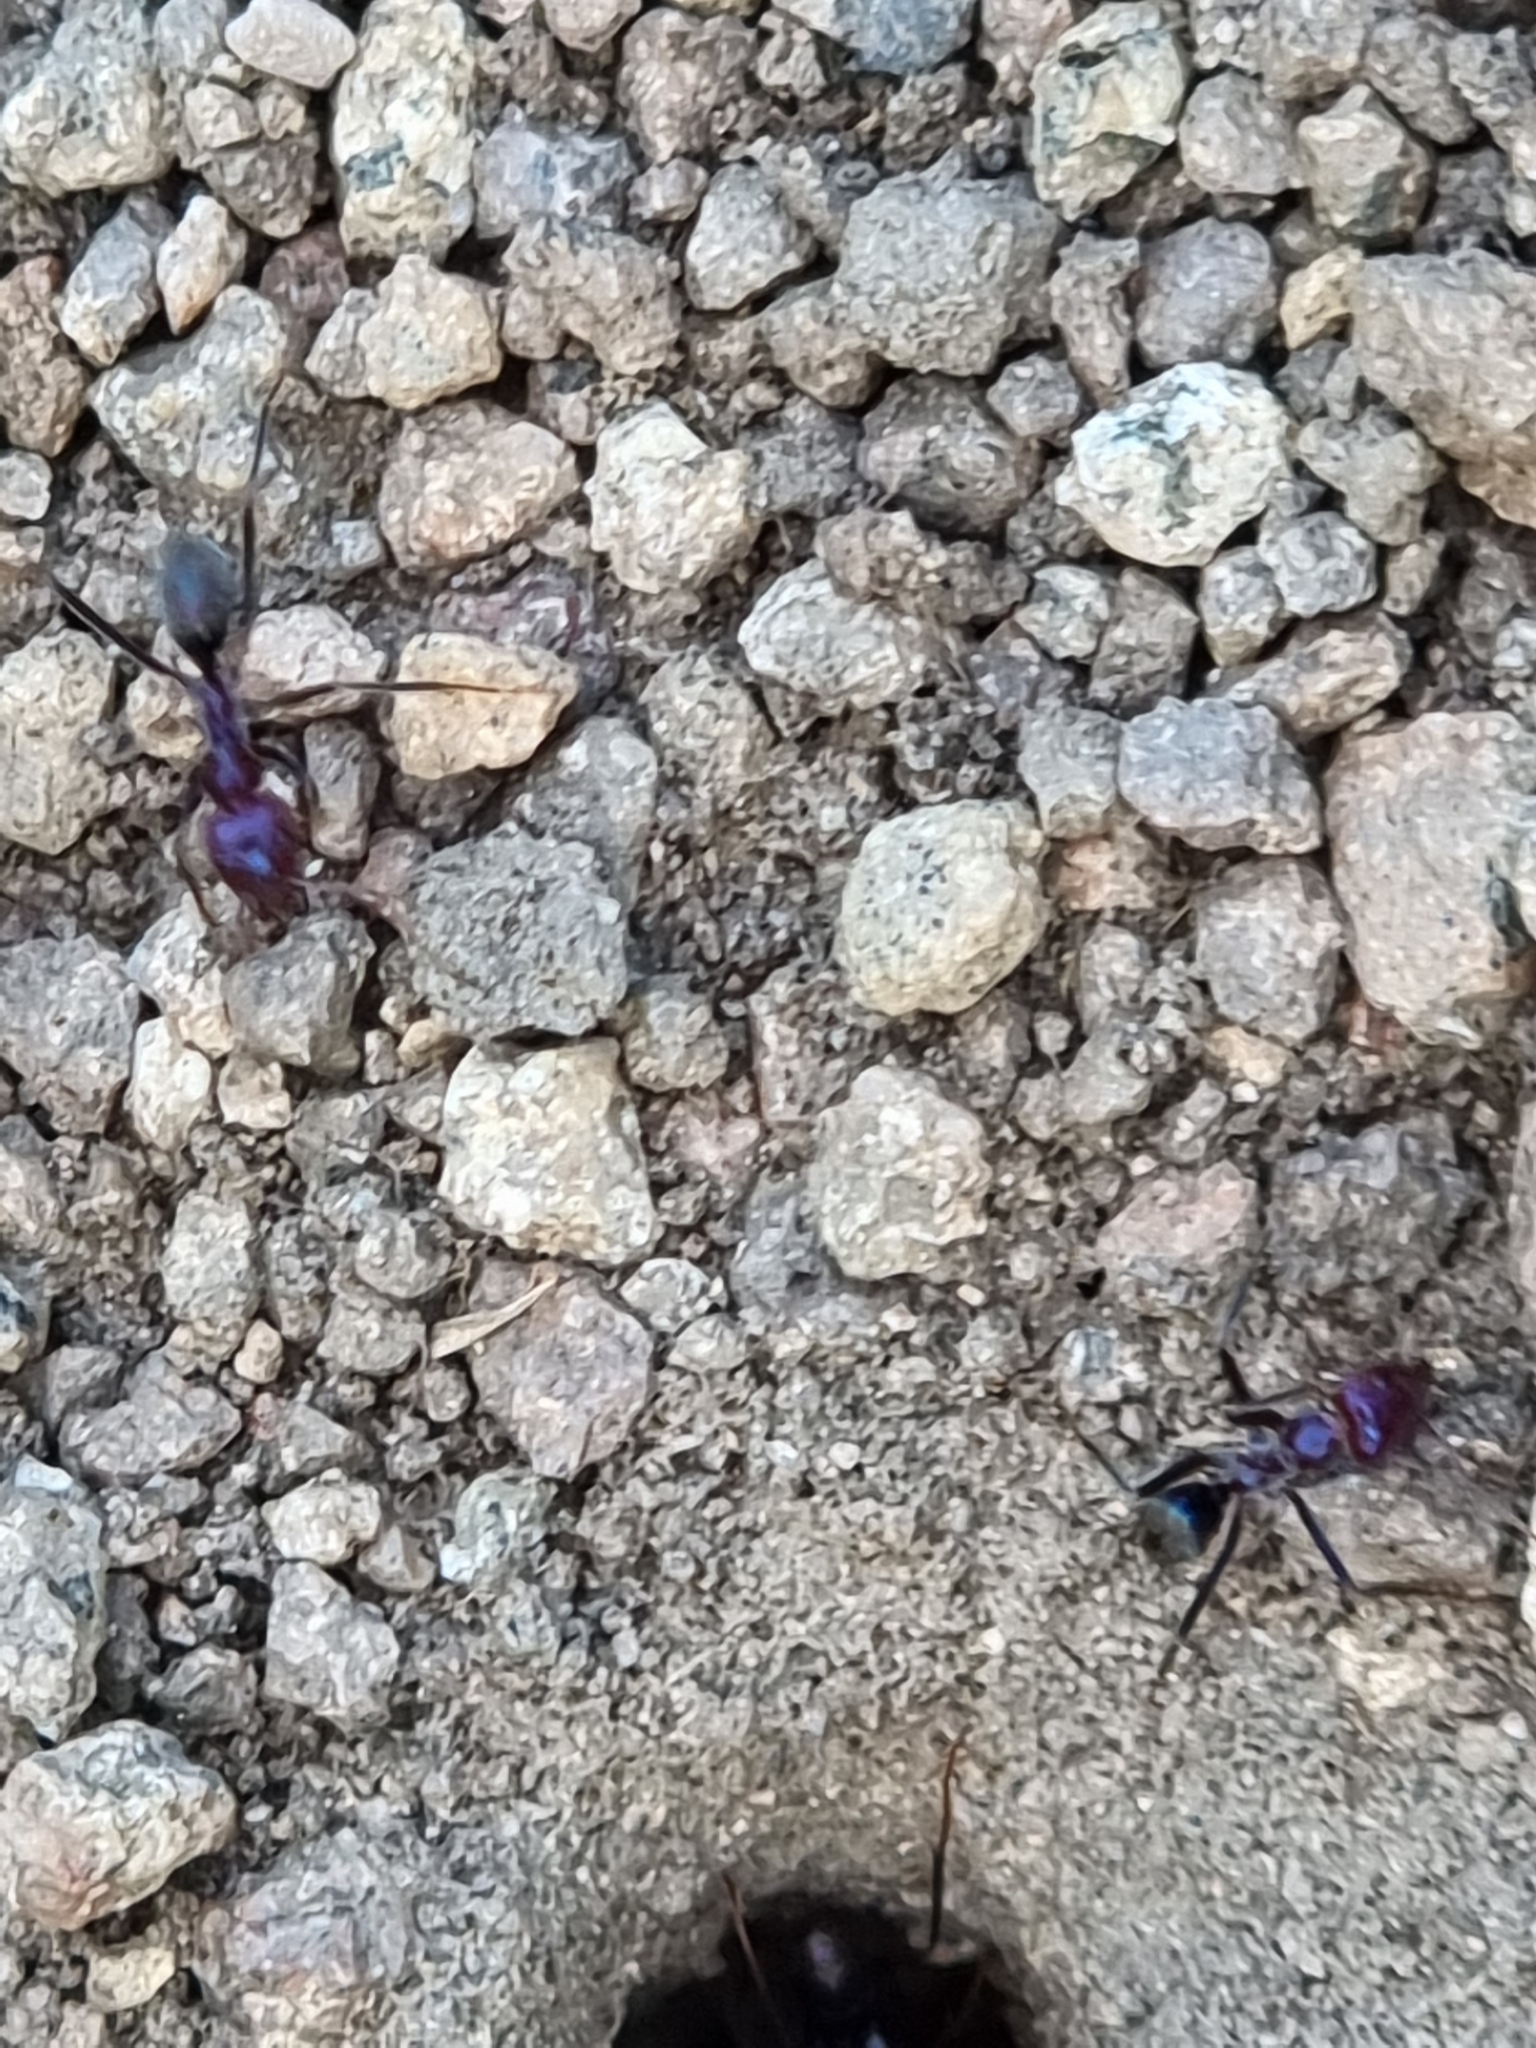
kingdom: Animalia
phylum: Arthropoda
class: Insecta
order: Hymenoptera
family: Formicidae
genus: Iridomyrmex
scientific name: Iridomyrmex purpureus
